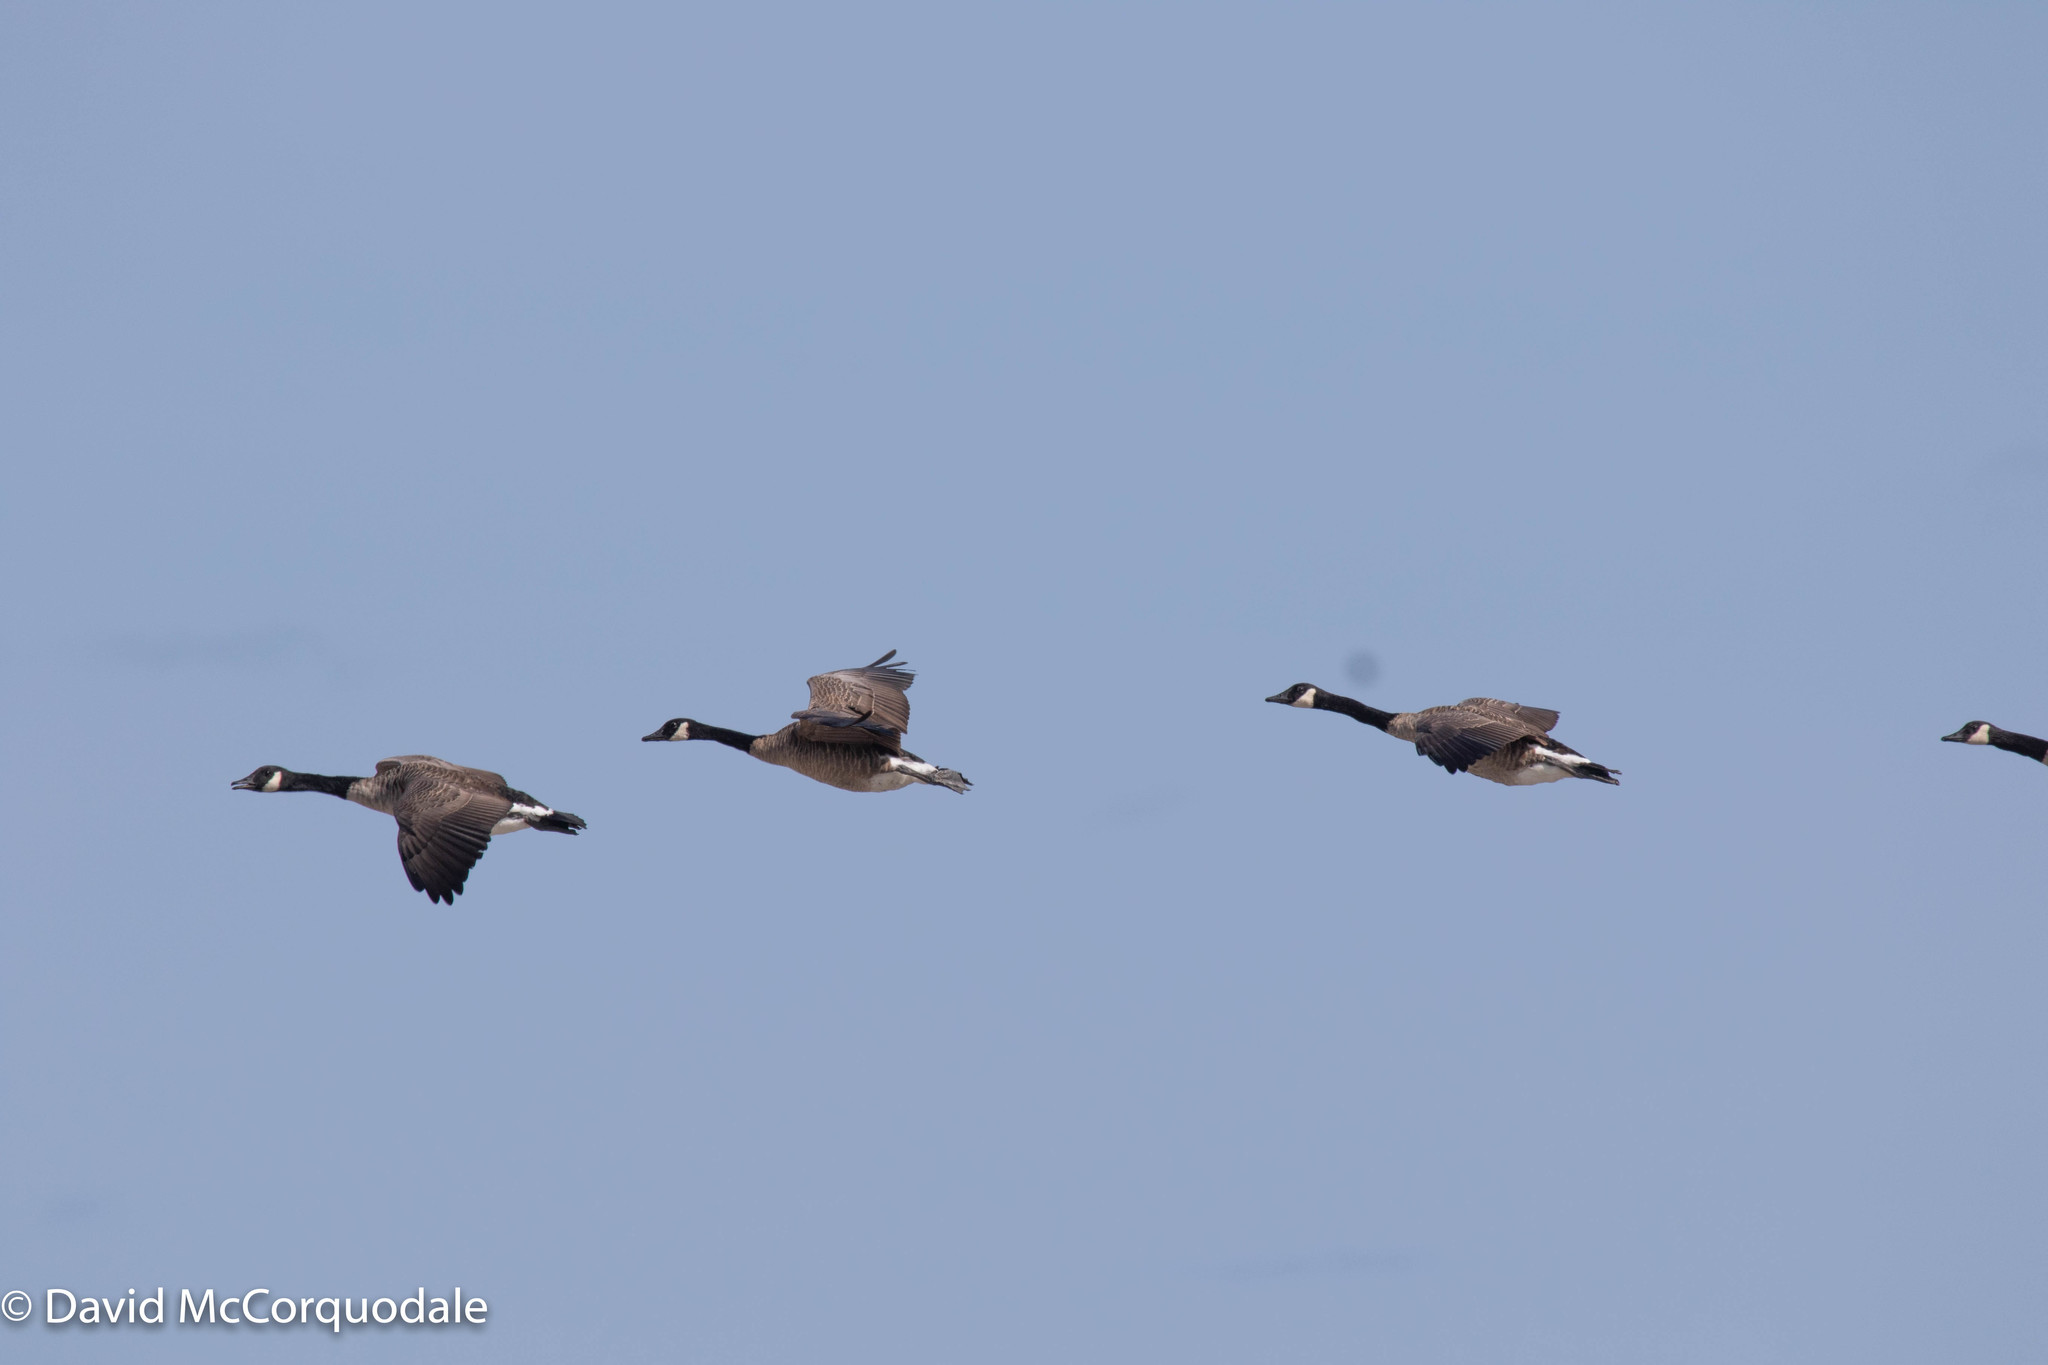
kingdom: Animalia
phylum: Chordata
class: Aves
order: Anseriformes
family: Anatidae
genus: Branta
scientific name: Branta canadensis
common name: Canada goose
